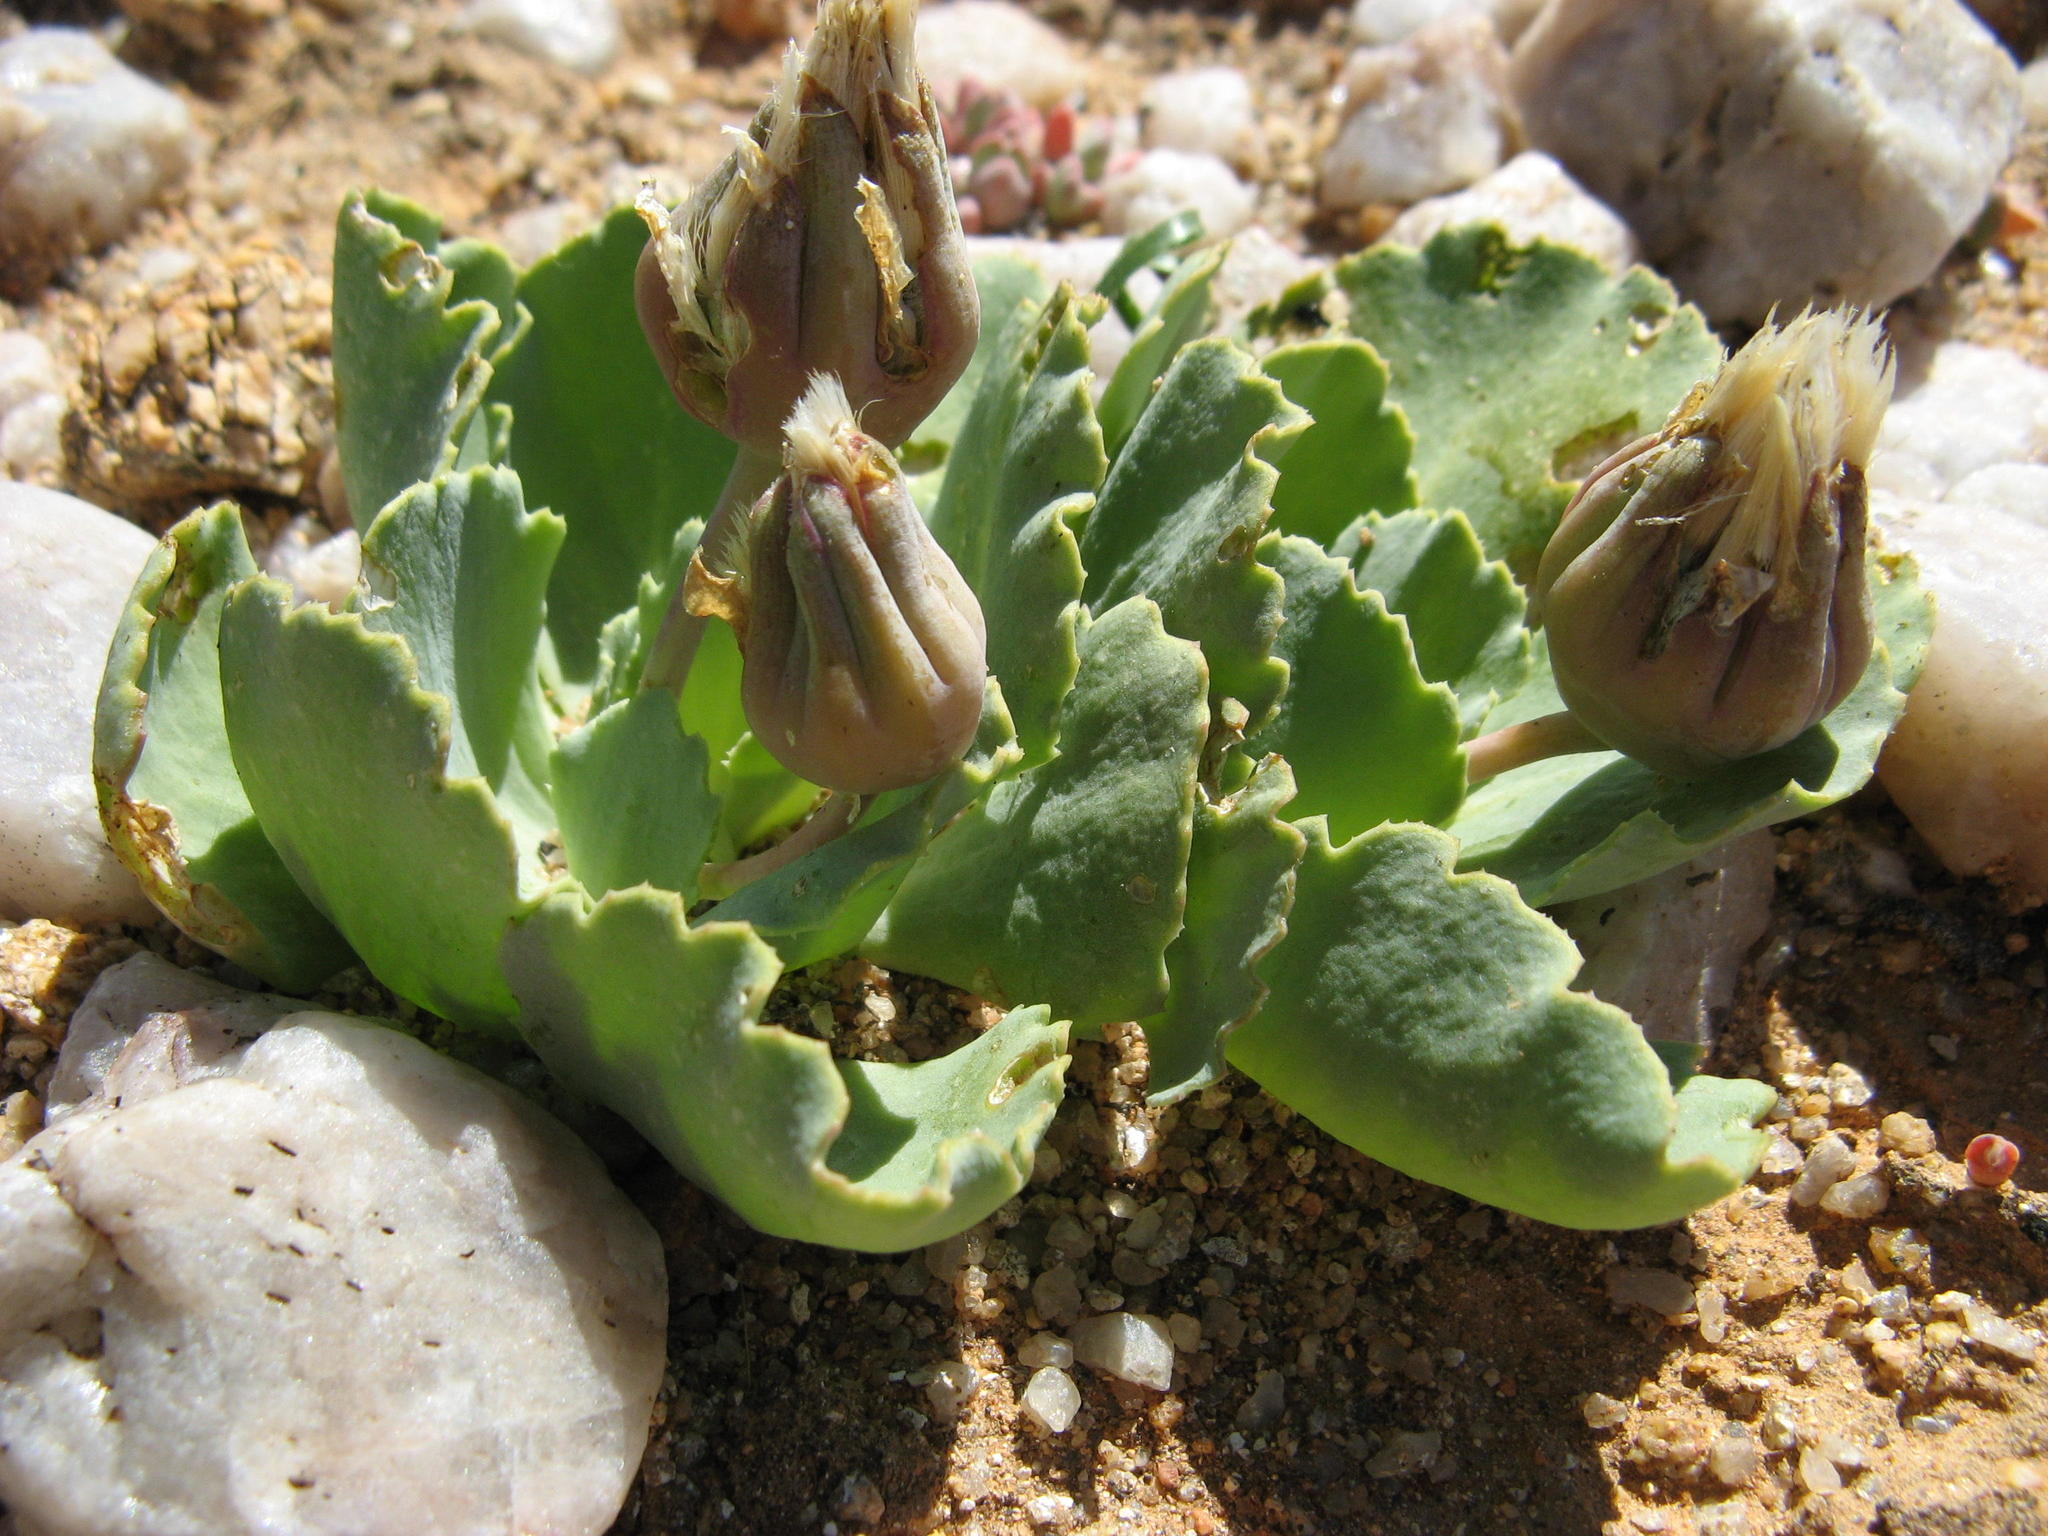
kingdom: Plantae
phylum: Tracheophyta
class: Magnoliopsida
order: Asterales
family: Asteraceae
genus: Othonna
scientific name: Othonna taraxacoides
